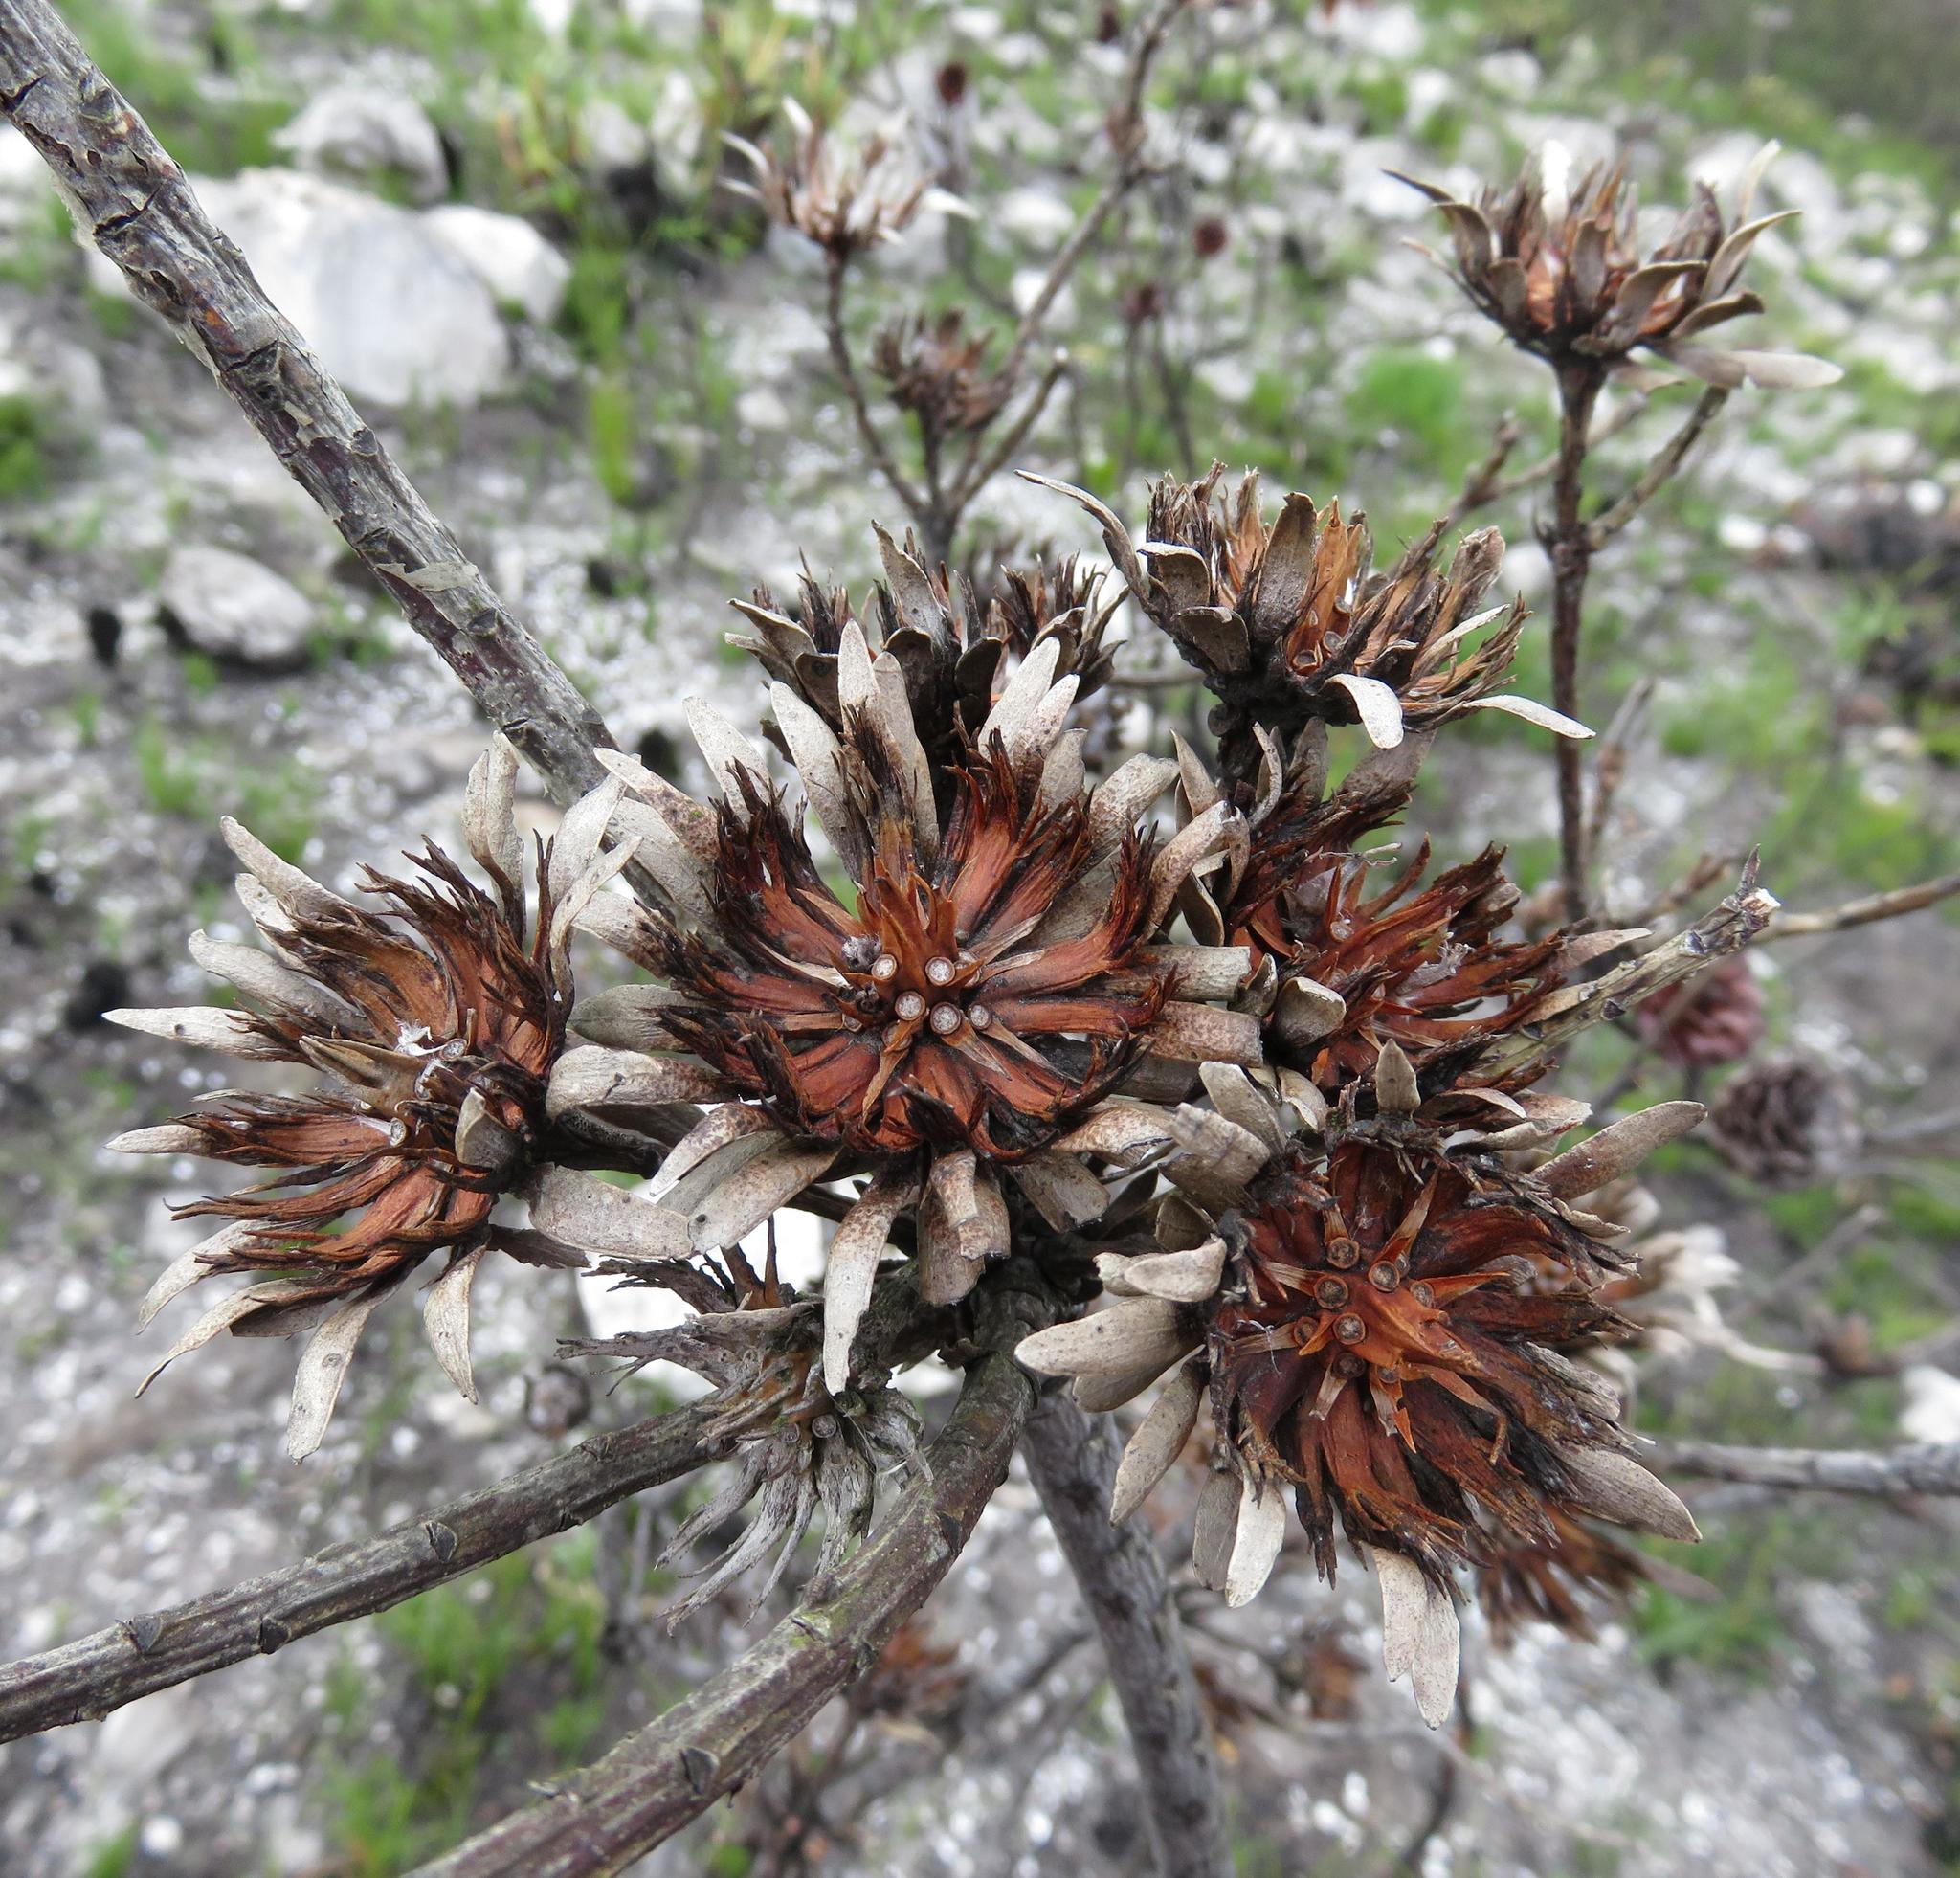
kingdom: Plantae
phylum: Tracheophyta
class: Magnoliopsida
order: Proteales
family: Proteaceae
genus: Aulax
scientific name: Aulax umbellata
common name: Broad-leaf featherbush
